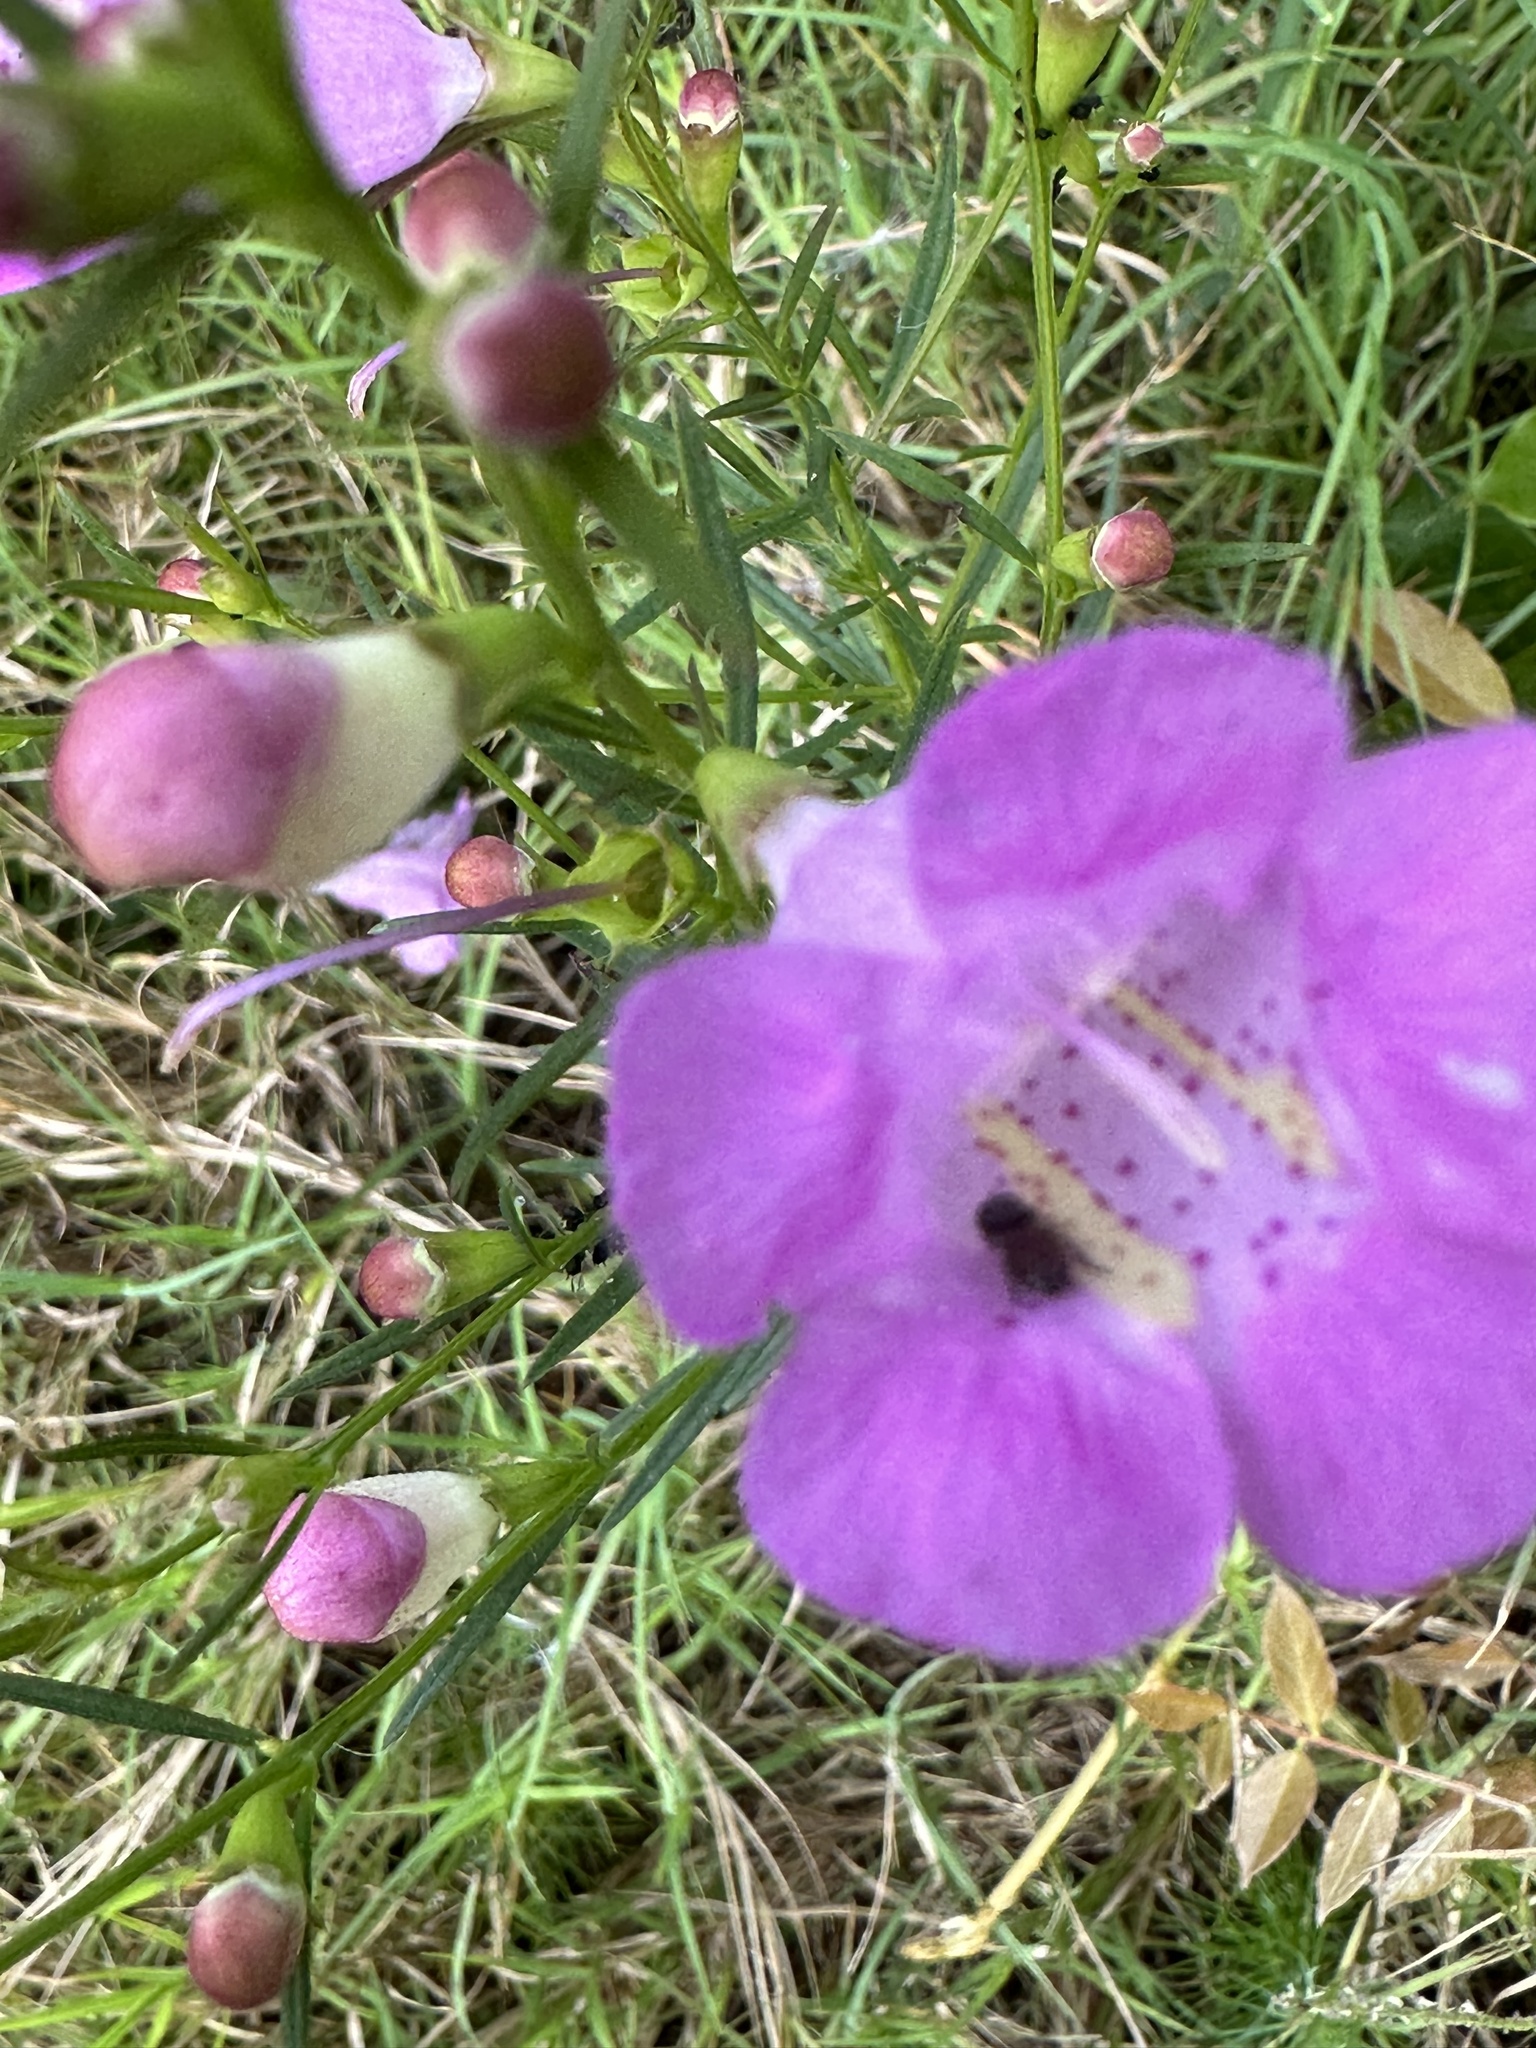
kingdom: Plantae
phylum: Tracheophyta
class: Magnoliopsida
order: Lamiales
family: Orobanchaceae
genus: Agalinis
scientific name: Agalinis purpurea
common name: Purple false foxglove
